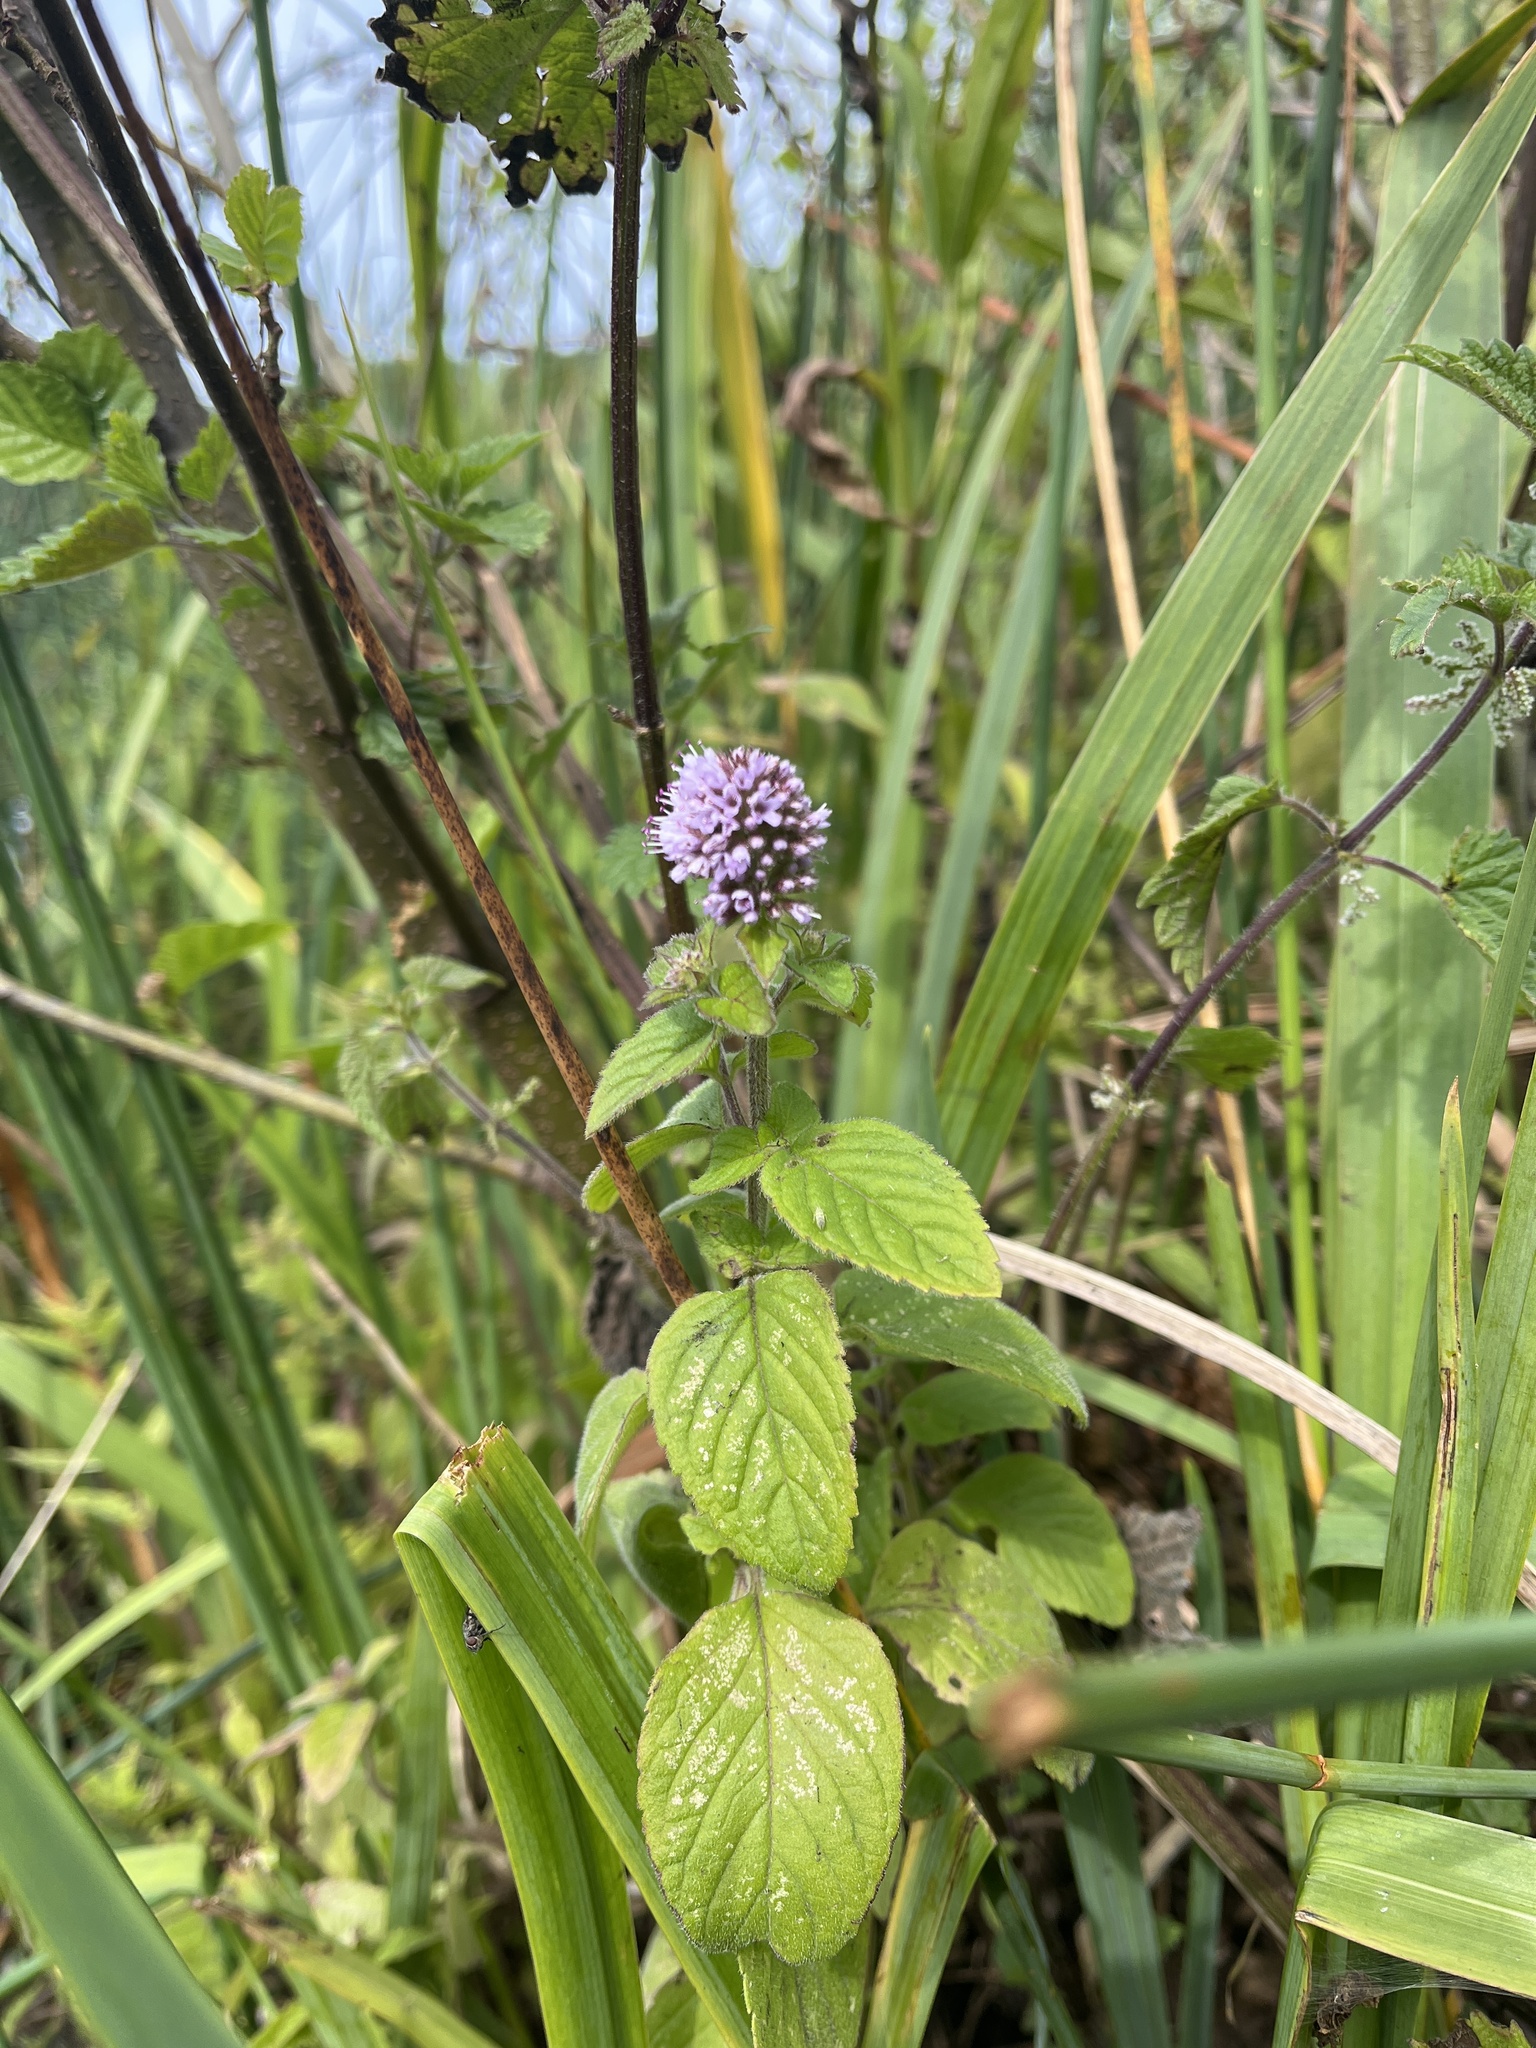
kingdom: Plantae
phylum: Tracheophyta
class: Magnoliopsida
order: Lamiales
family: Lamiaceae
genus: Mentha
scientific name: Mentha aquatica
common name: Water mint
